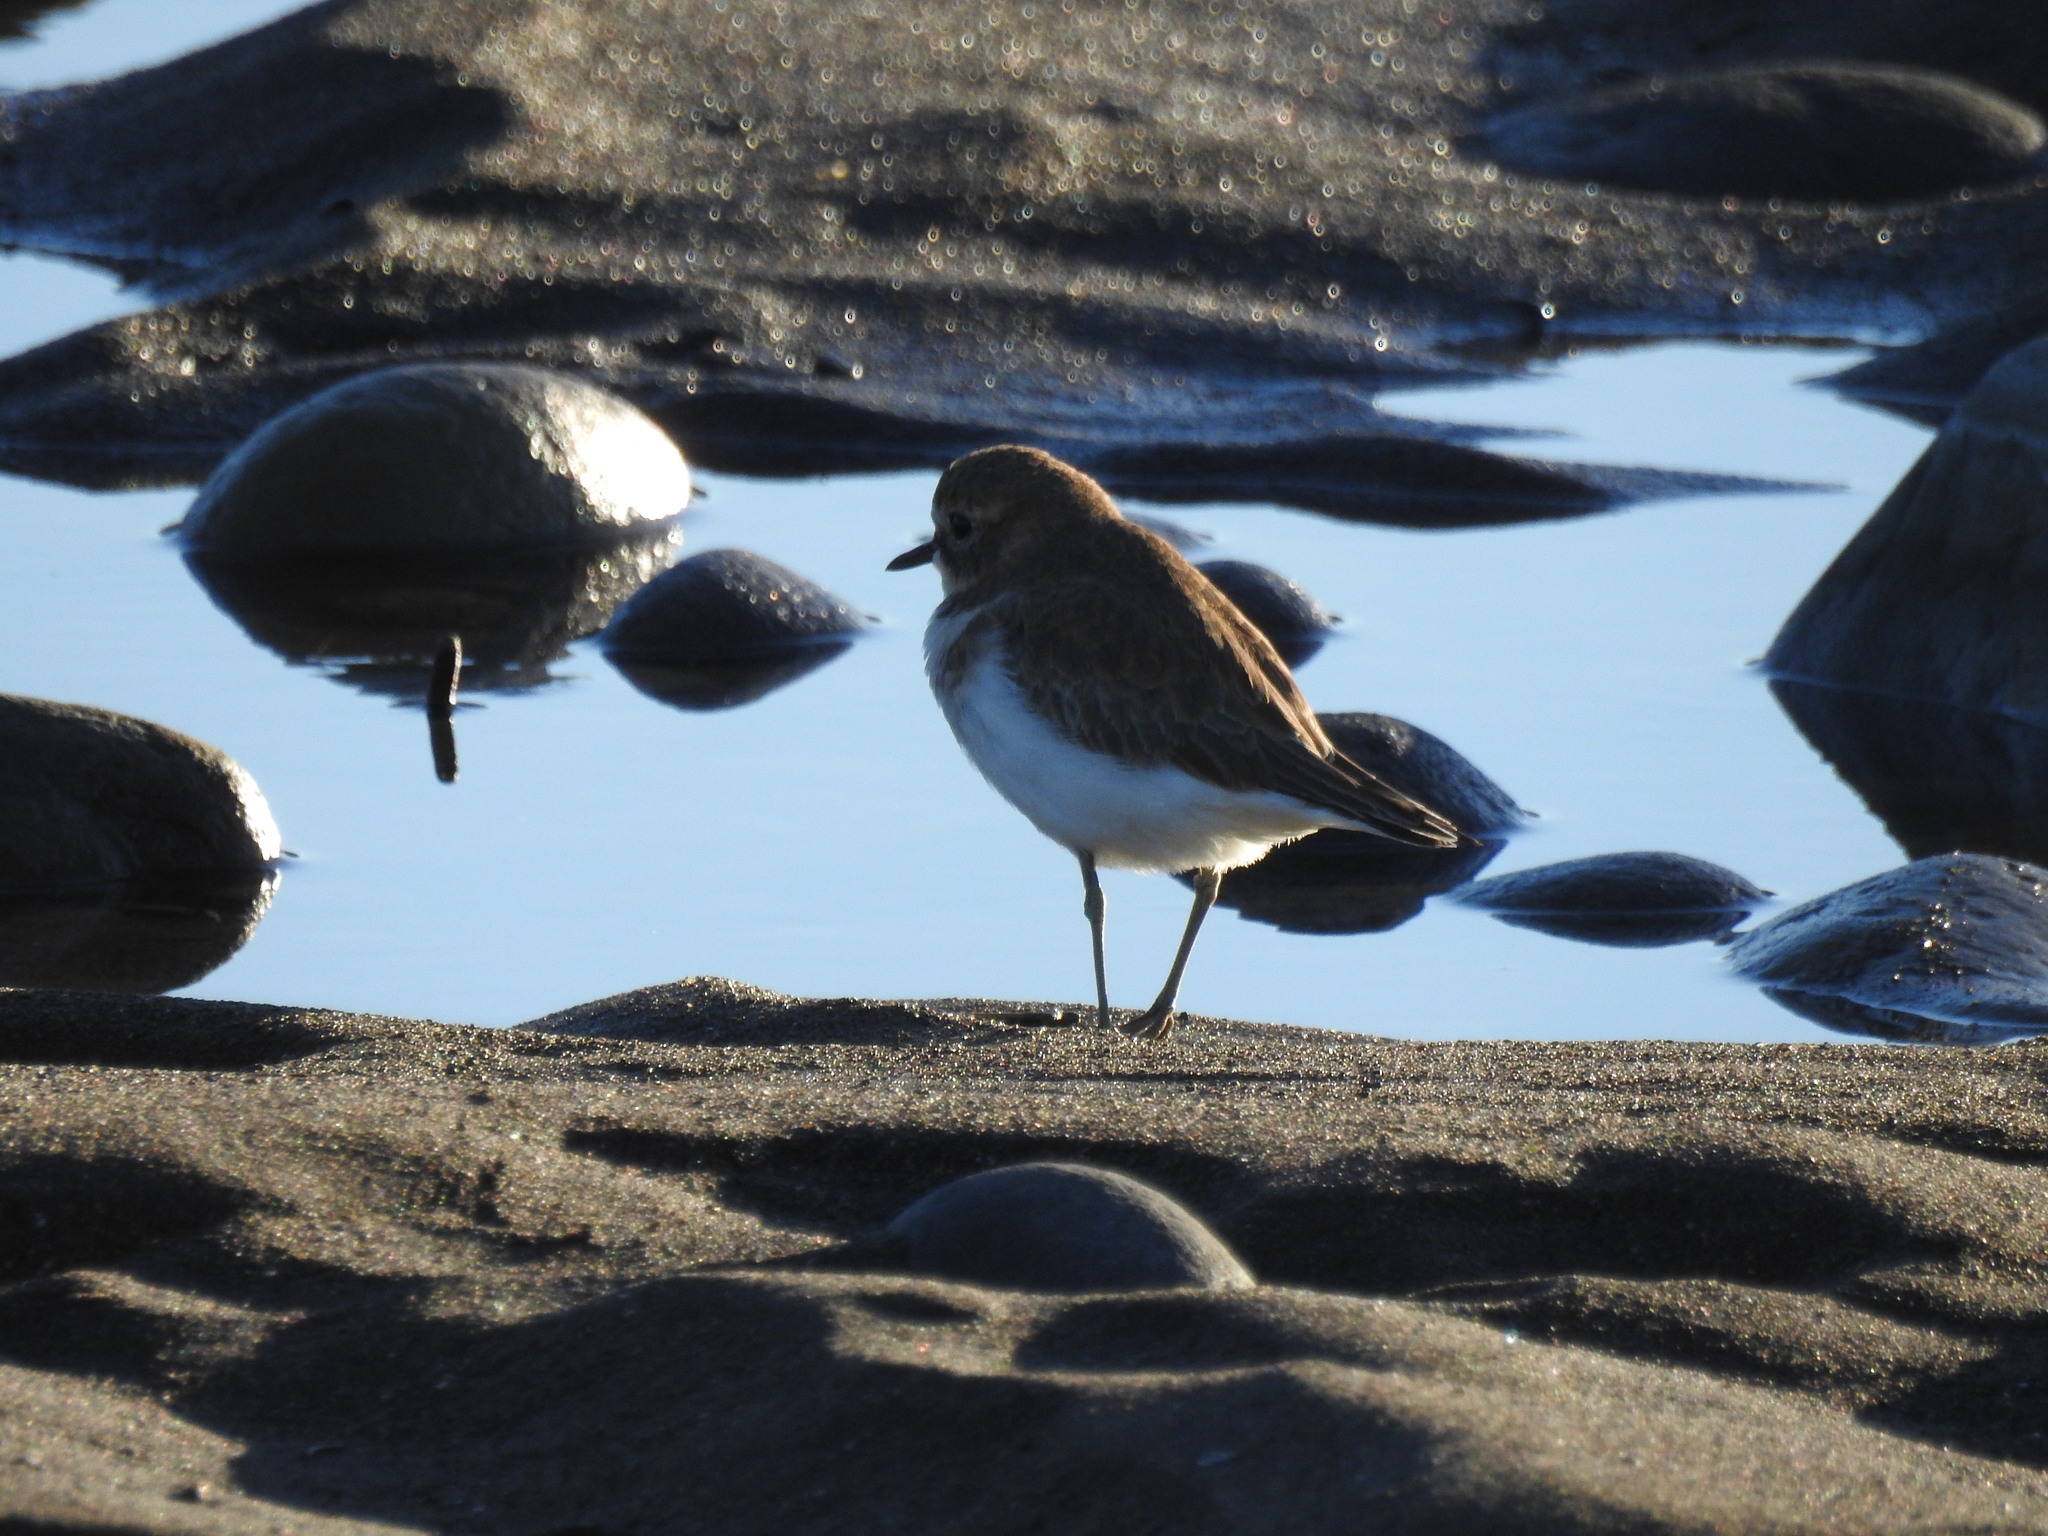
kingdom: Animalia
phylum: Chordata
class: Aves
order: Charadriiformes
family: Charadriidae
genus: Anarhynchus
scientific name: Anarhynchus
